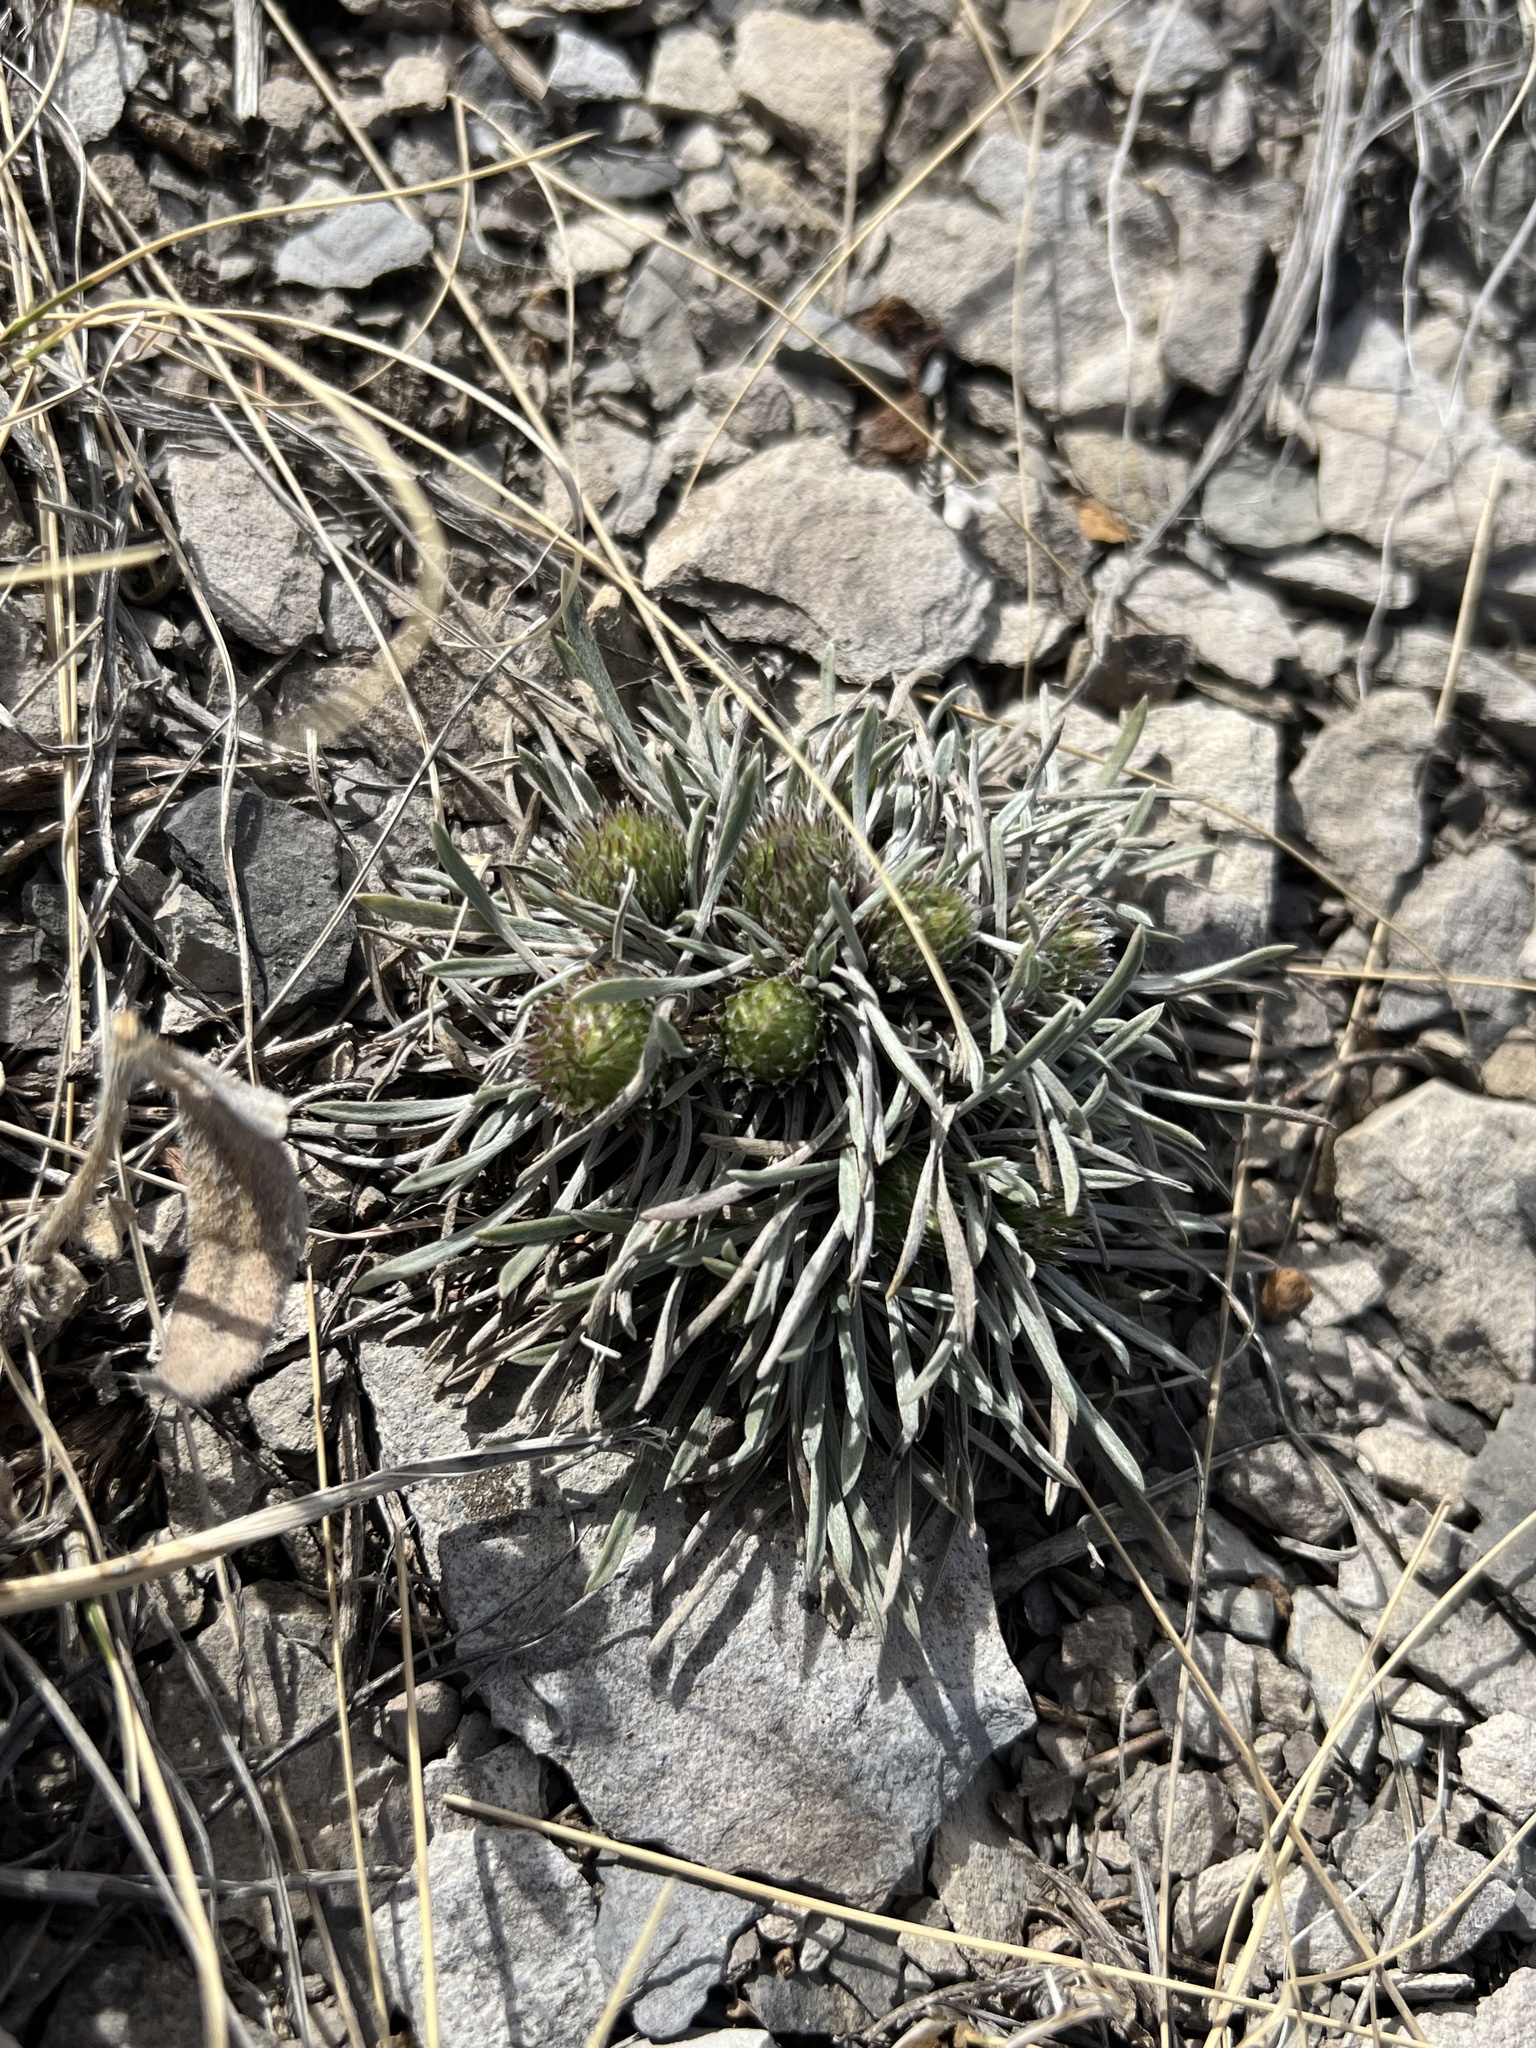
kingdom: Plantae
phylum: Tracheophyta
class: Magnoliopsida
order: Asterales
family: Asteraceae
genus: Townsendia
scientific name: Townsendia hookeri
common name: Hooker's townsend daisy
